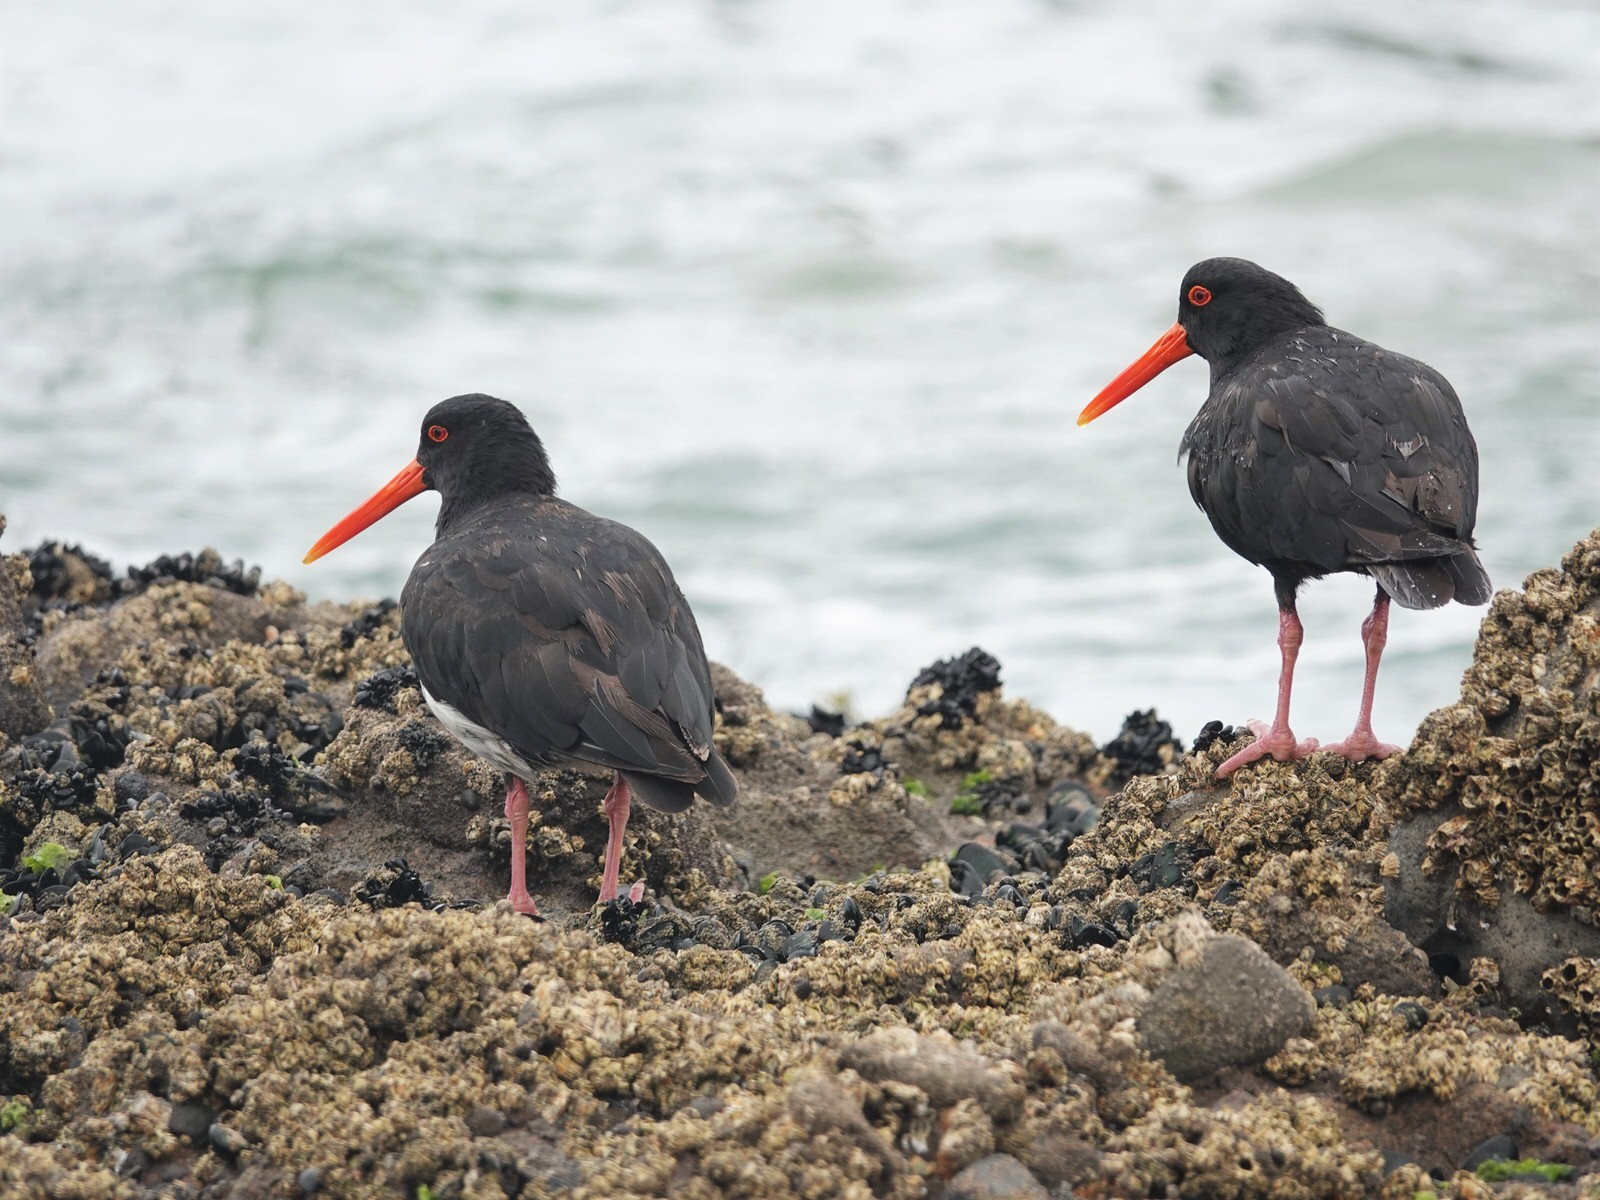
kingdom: Animalia
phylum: Chordata
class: Aves
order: Charadriiformes
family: Haematopodidae
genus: Haematopus
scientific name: Haematopus unicolor
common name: Variable oystercatcher
